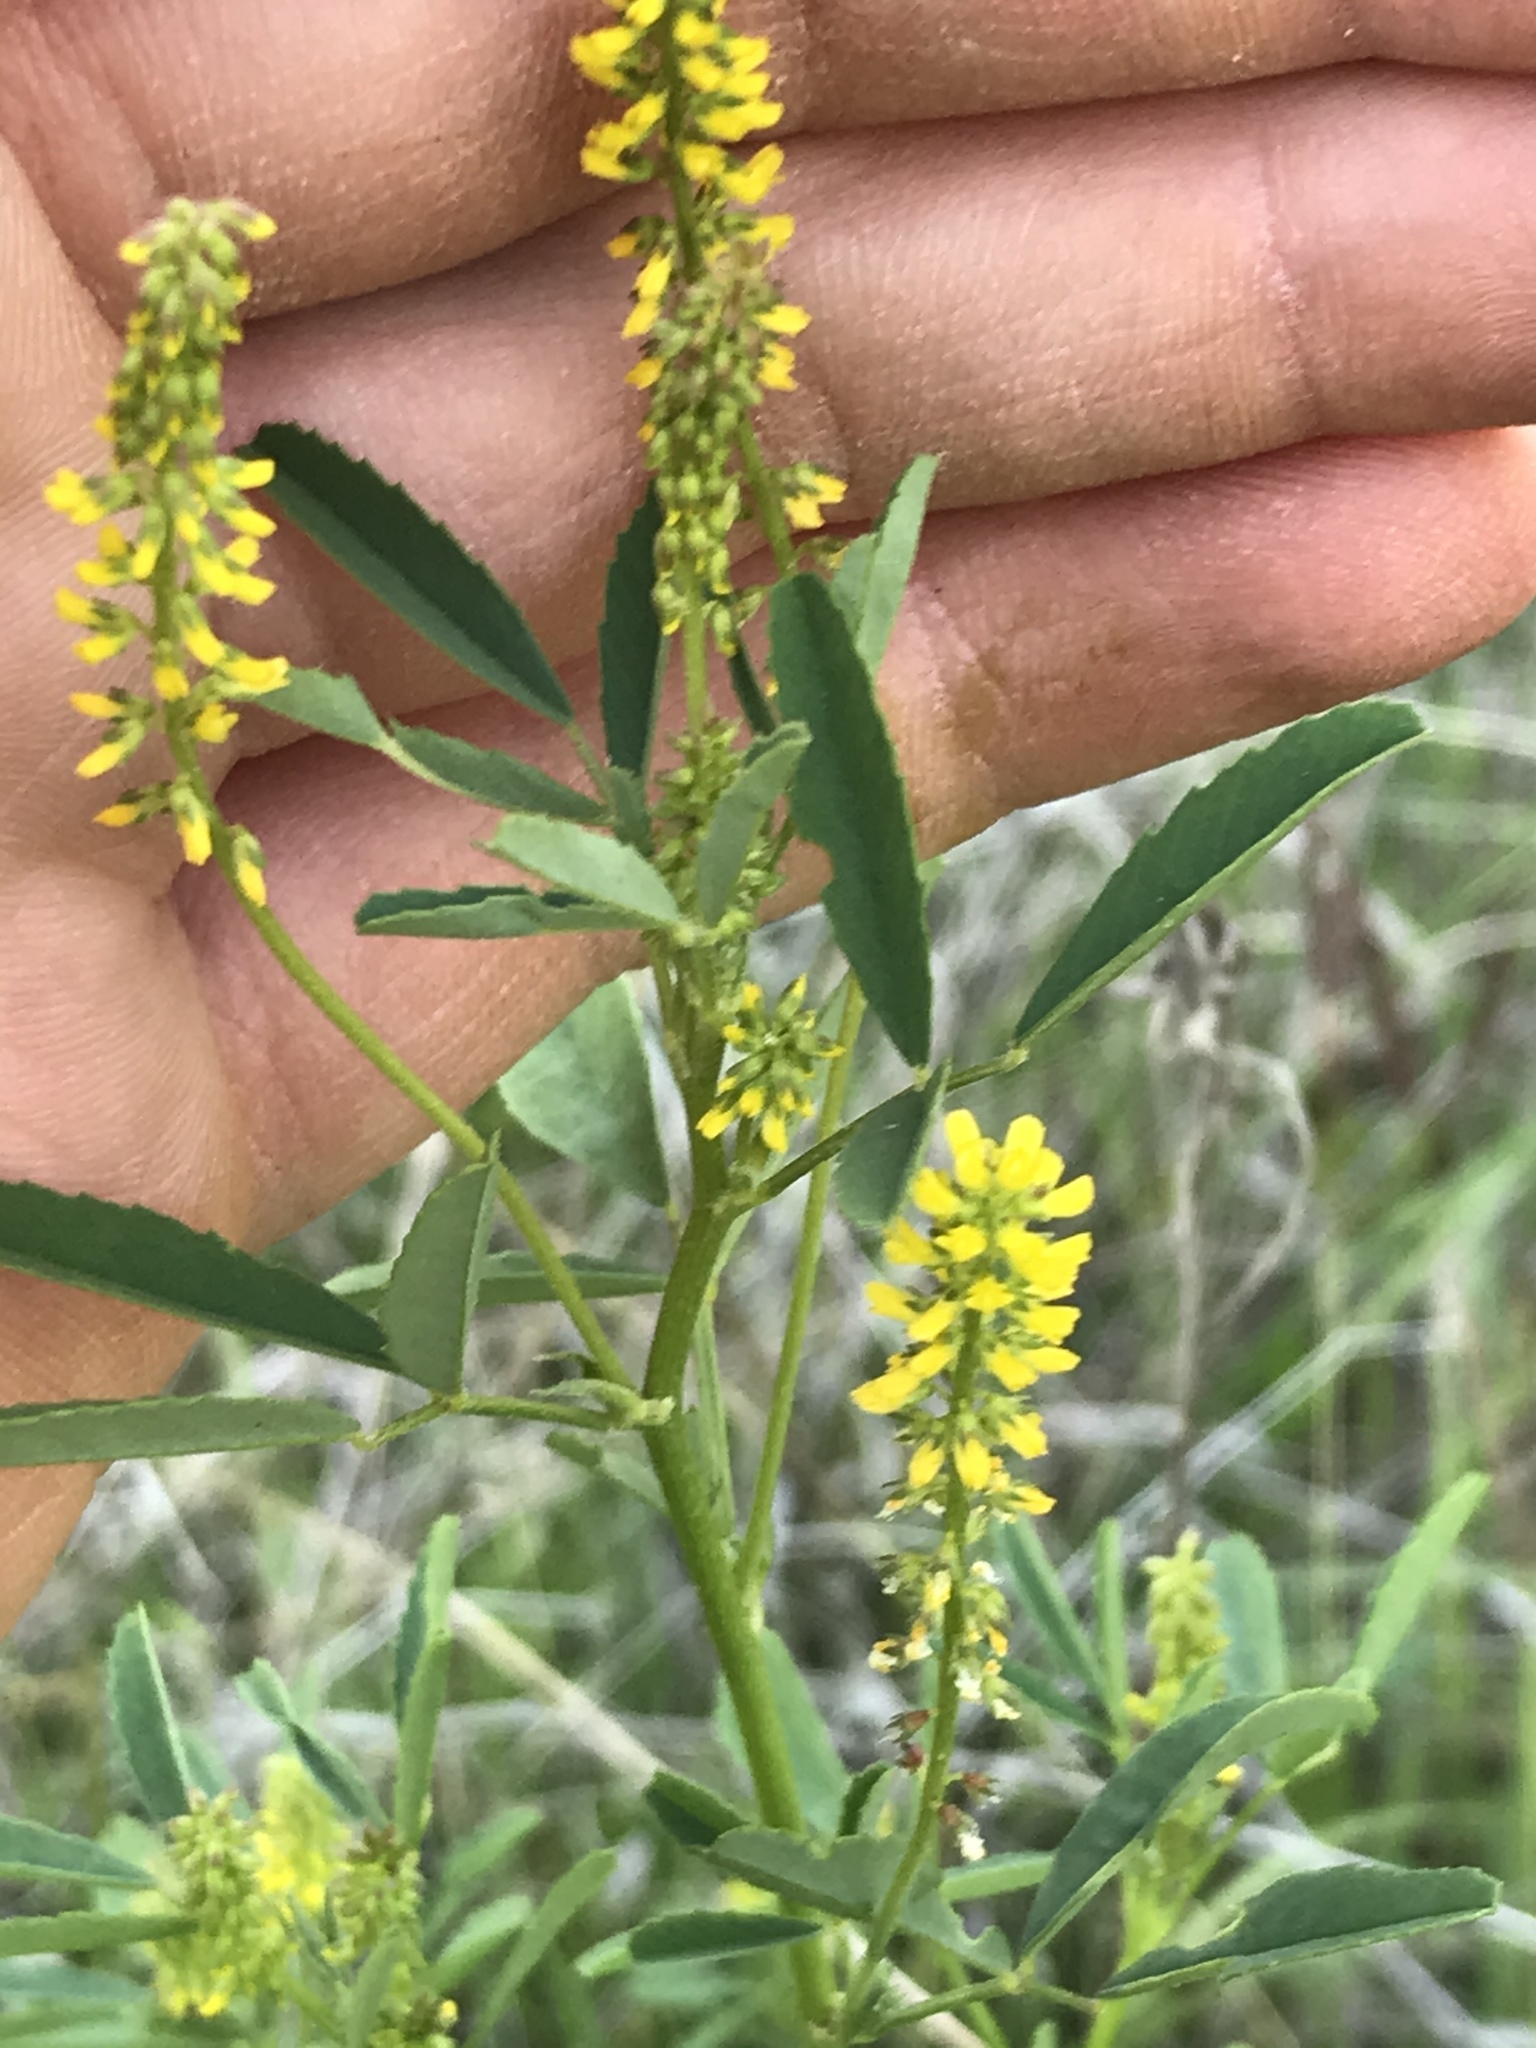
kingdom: Plantae
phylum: Tracheophyta
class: Magnoliopsida
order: Fabales
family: Fabaceae
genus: Melilotus
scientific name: Melilotus indicus
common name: Small melilot
